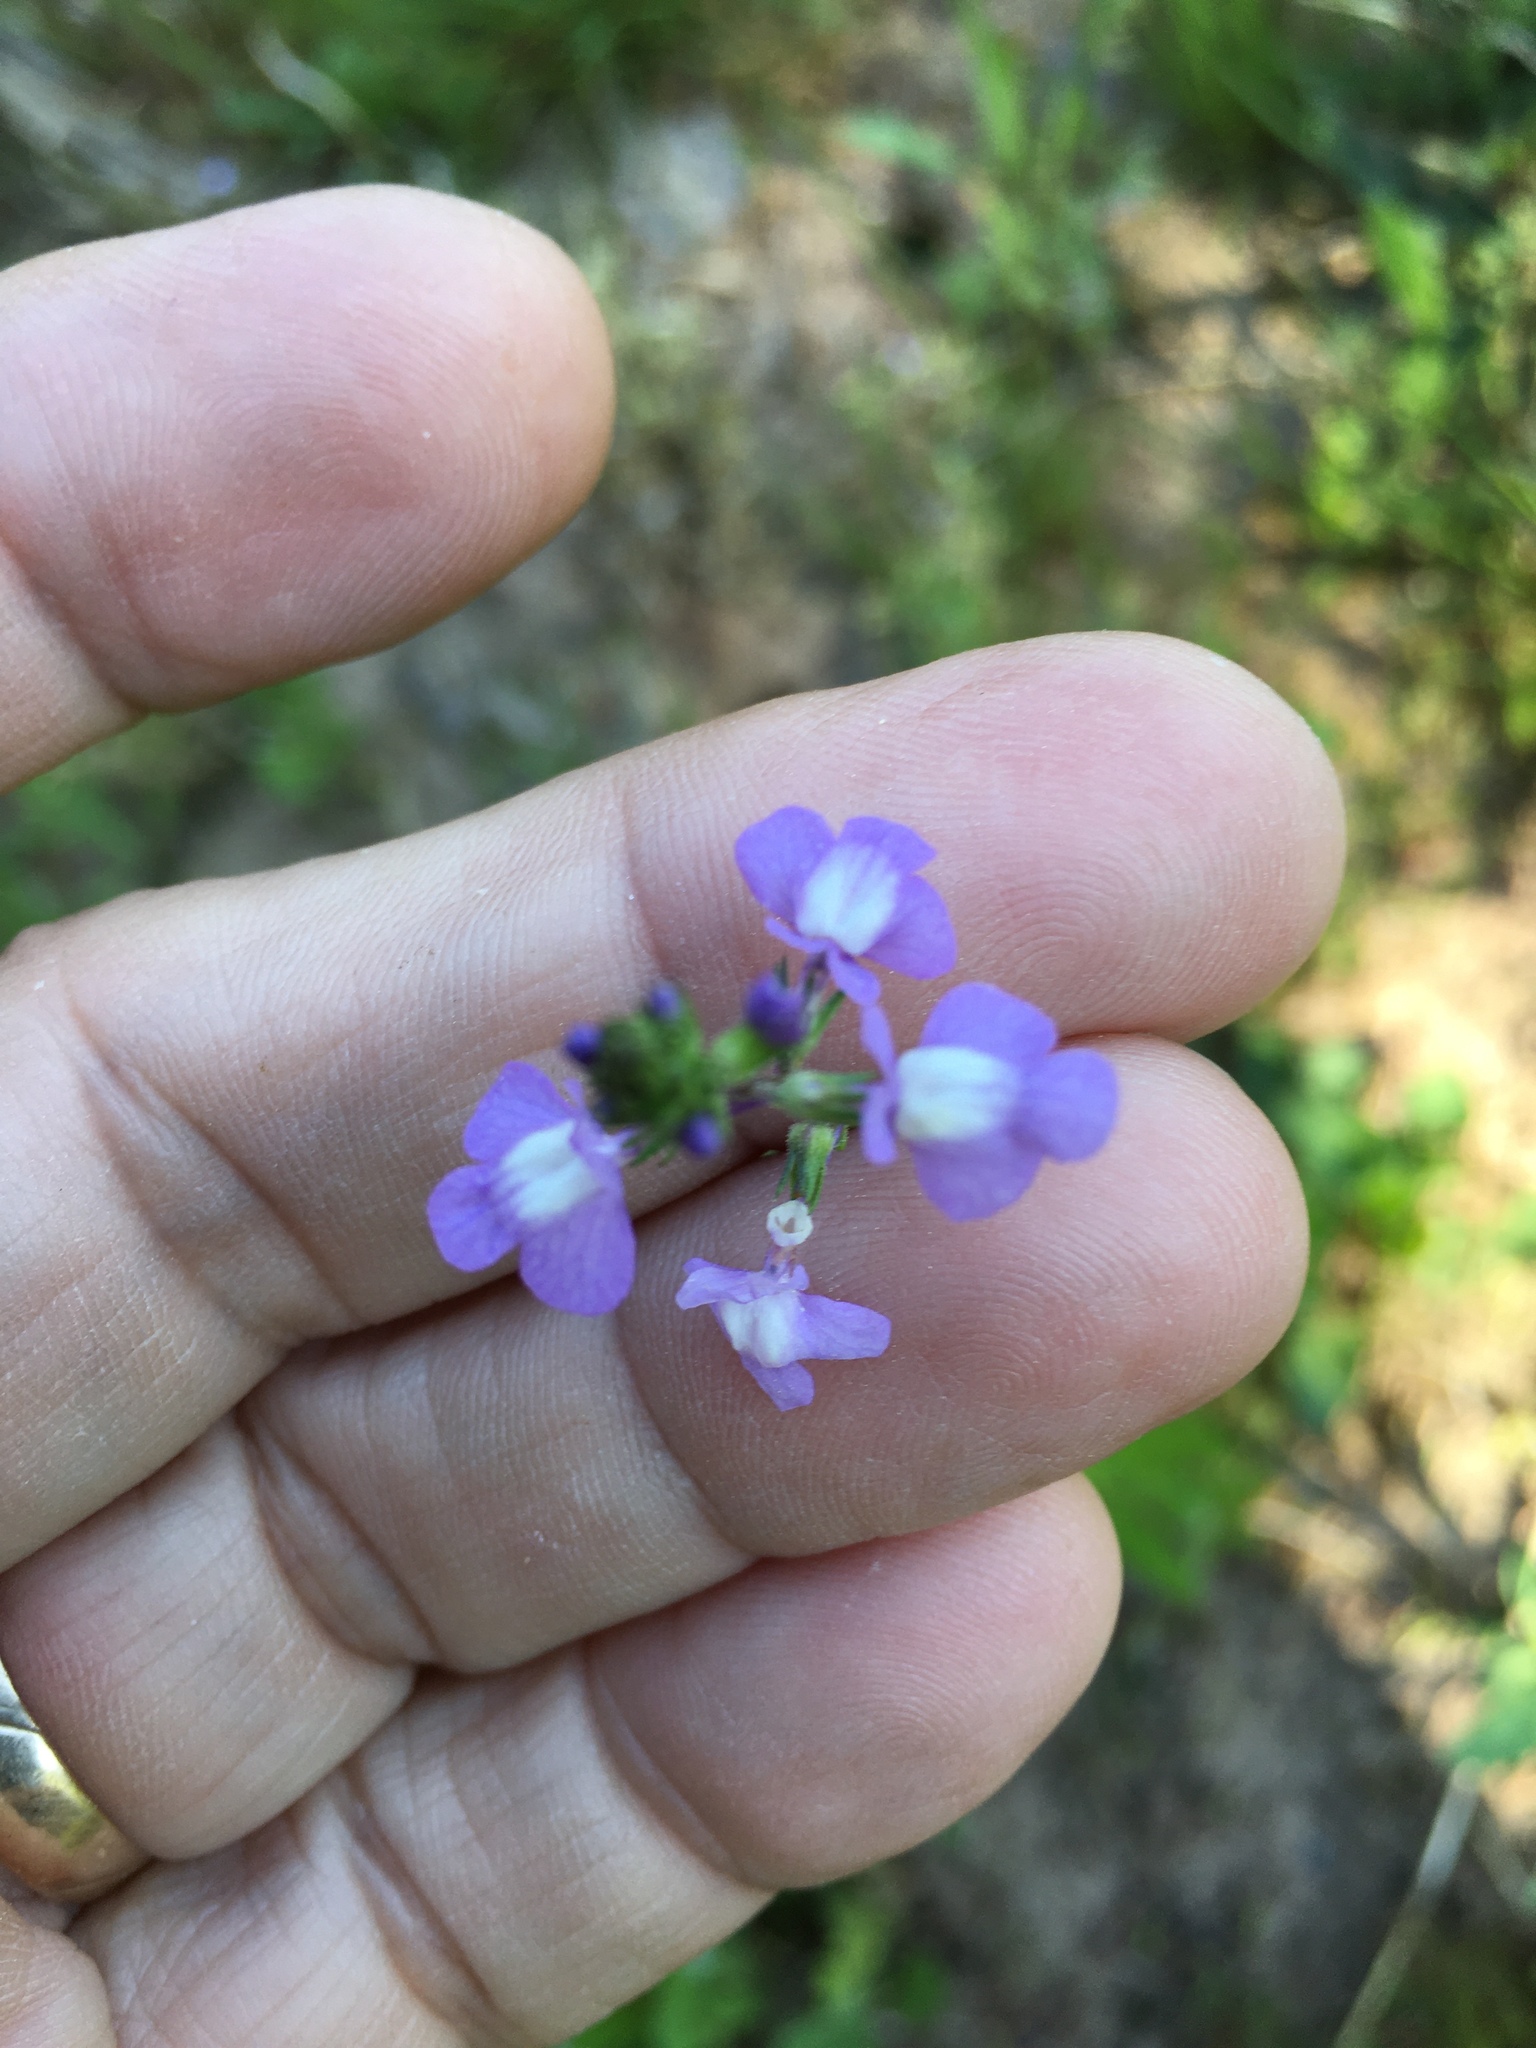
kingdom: Plantae
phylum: Tracheophyta
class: Magnoliopsida
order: Lamiales
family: Plantaginaceae
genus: Nuttallanthus
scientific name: Nuttallanthus canadensis
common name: Blue toadflax
